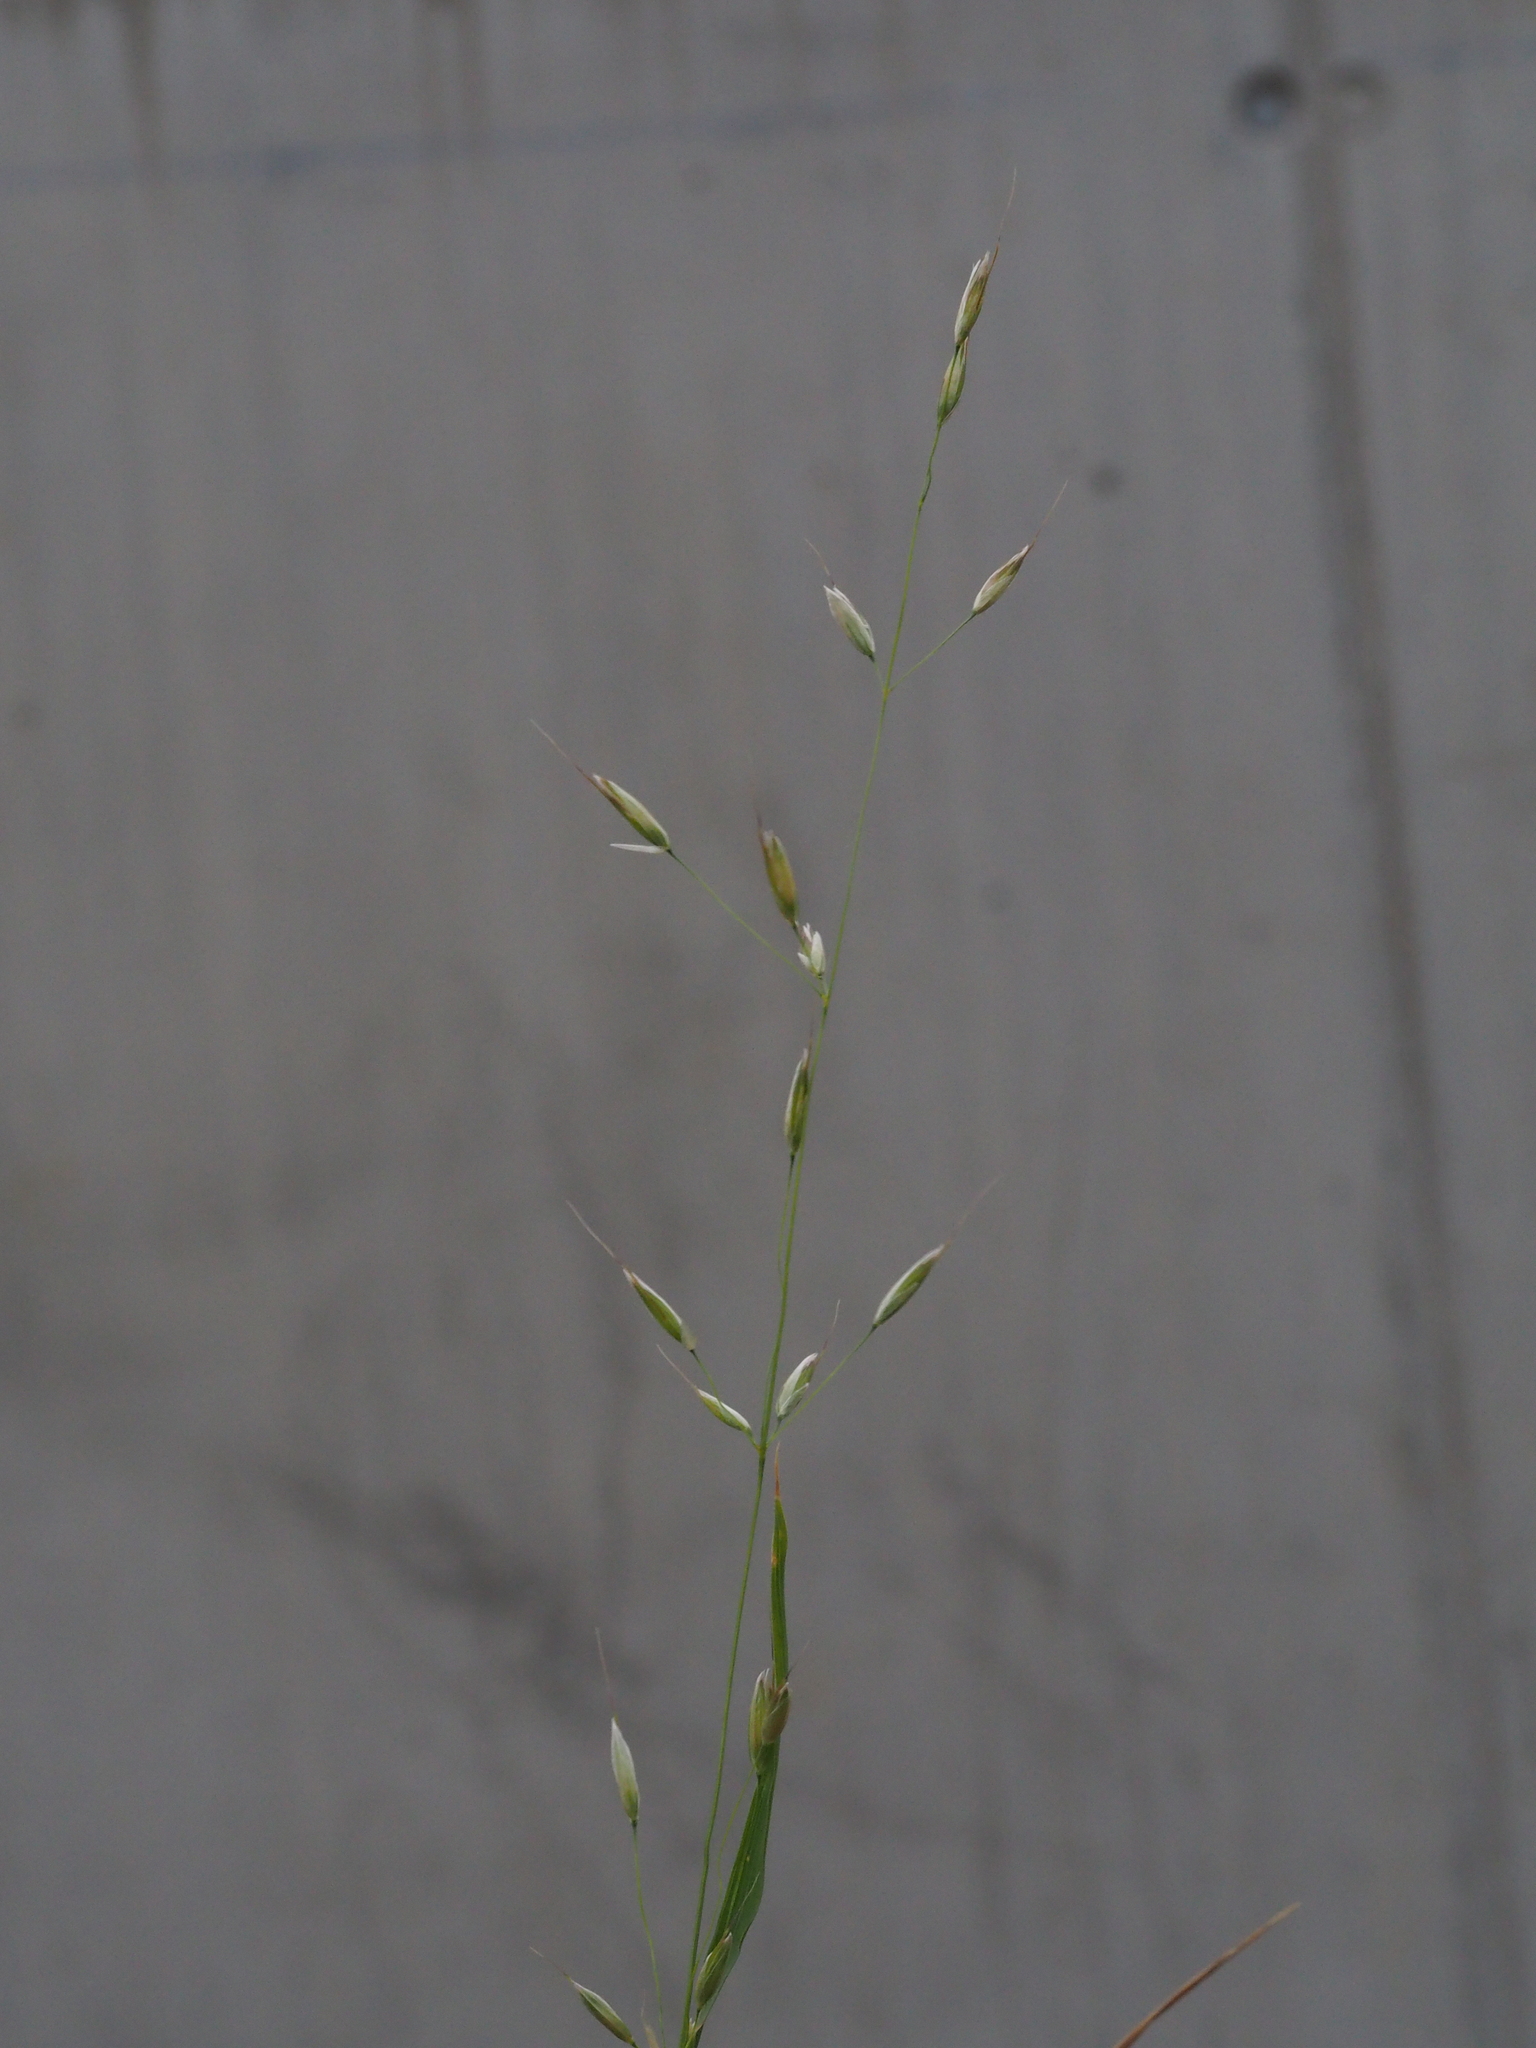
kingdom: Plantae
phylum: Tracheophyta
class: Liliopsida
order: Poales
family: Poaceae
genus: Arrhenatherum
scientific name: Arrhenatherum elatius
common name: Tall oatgrass
